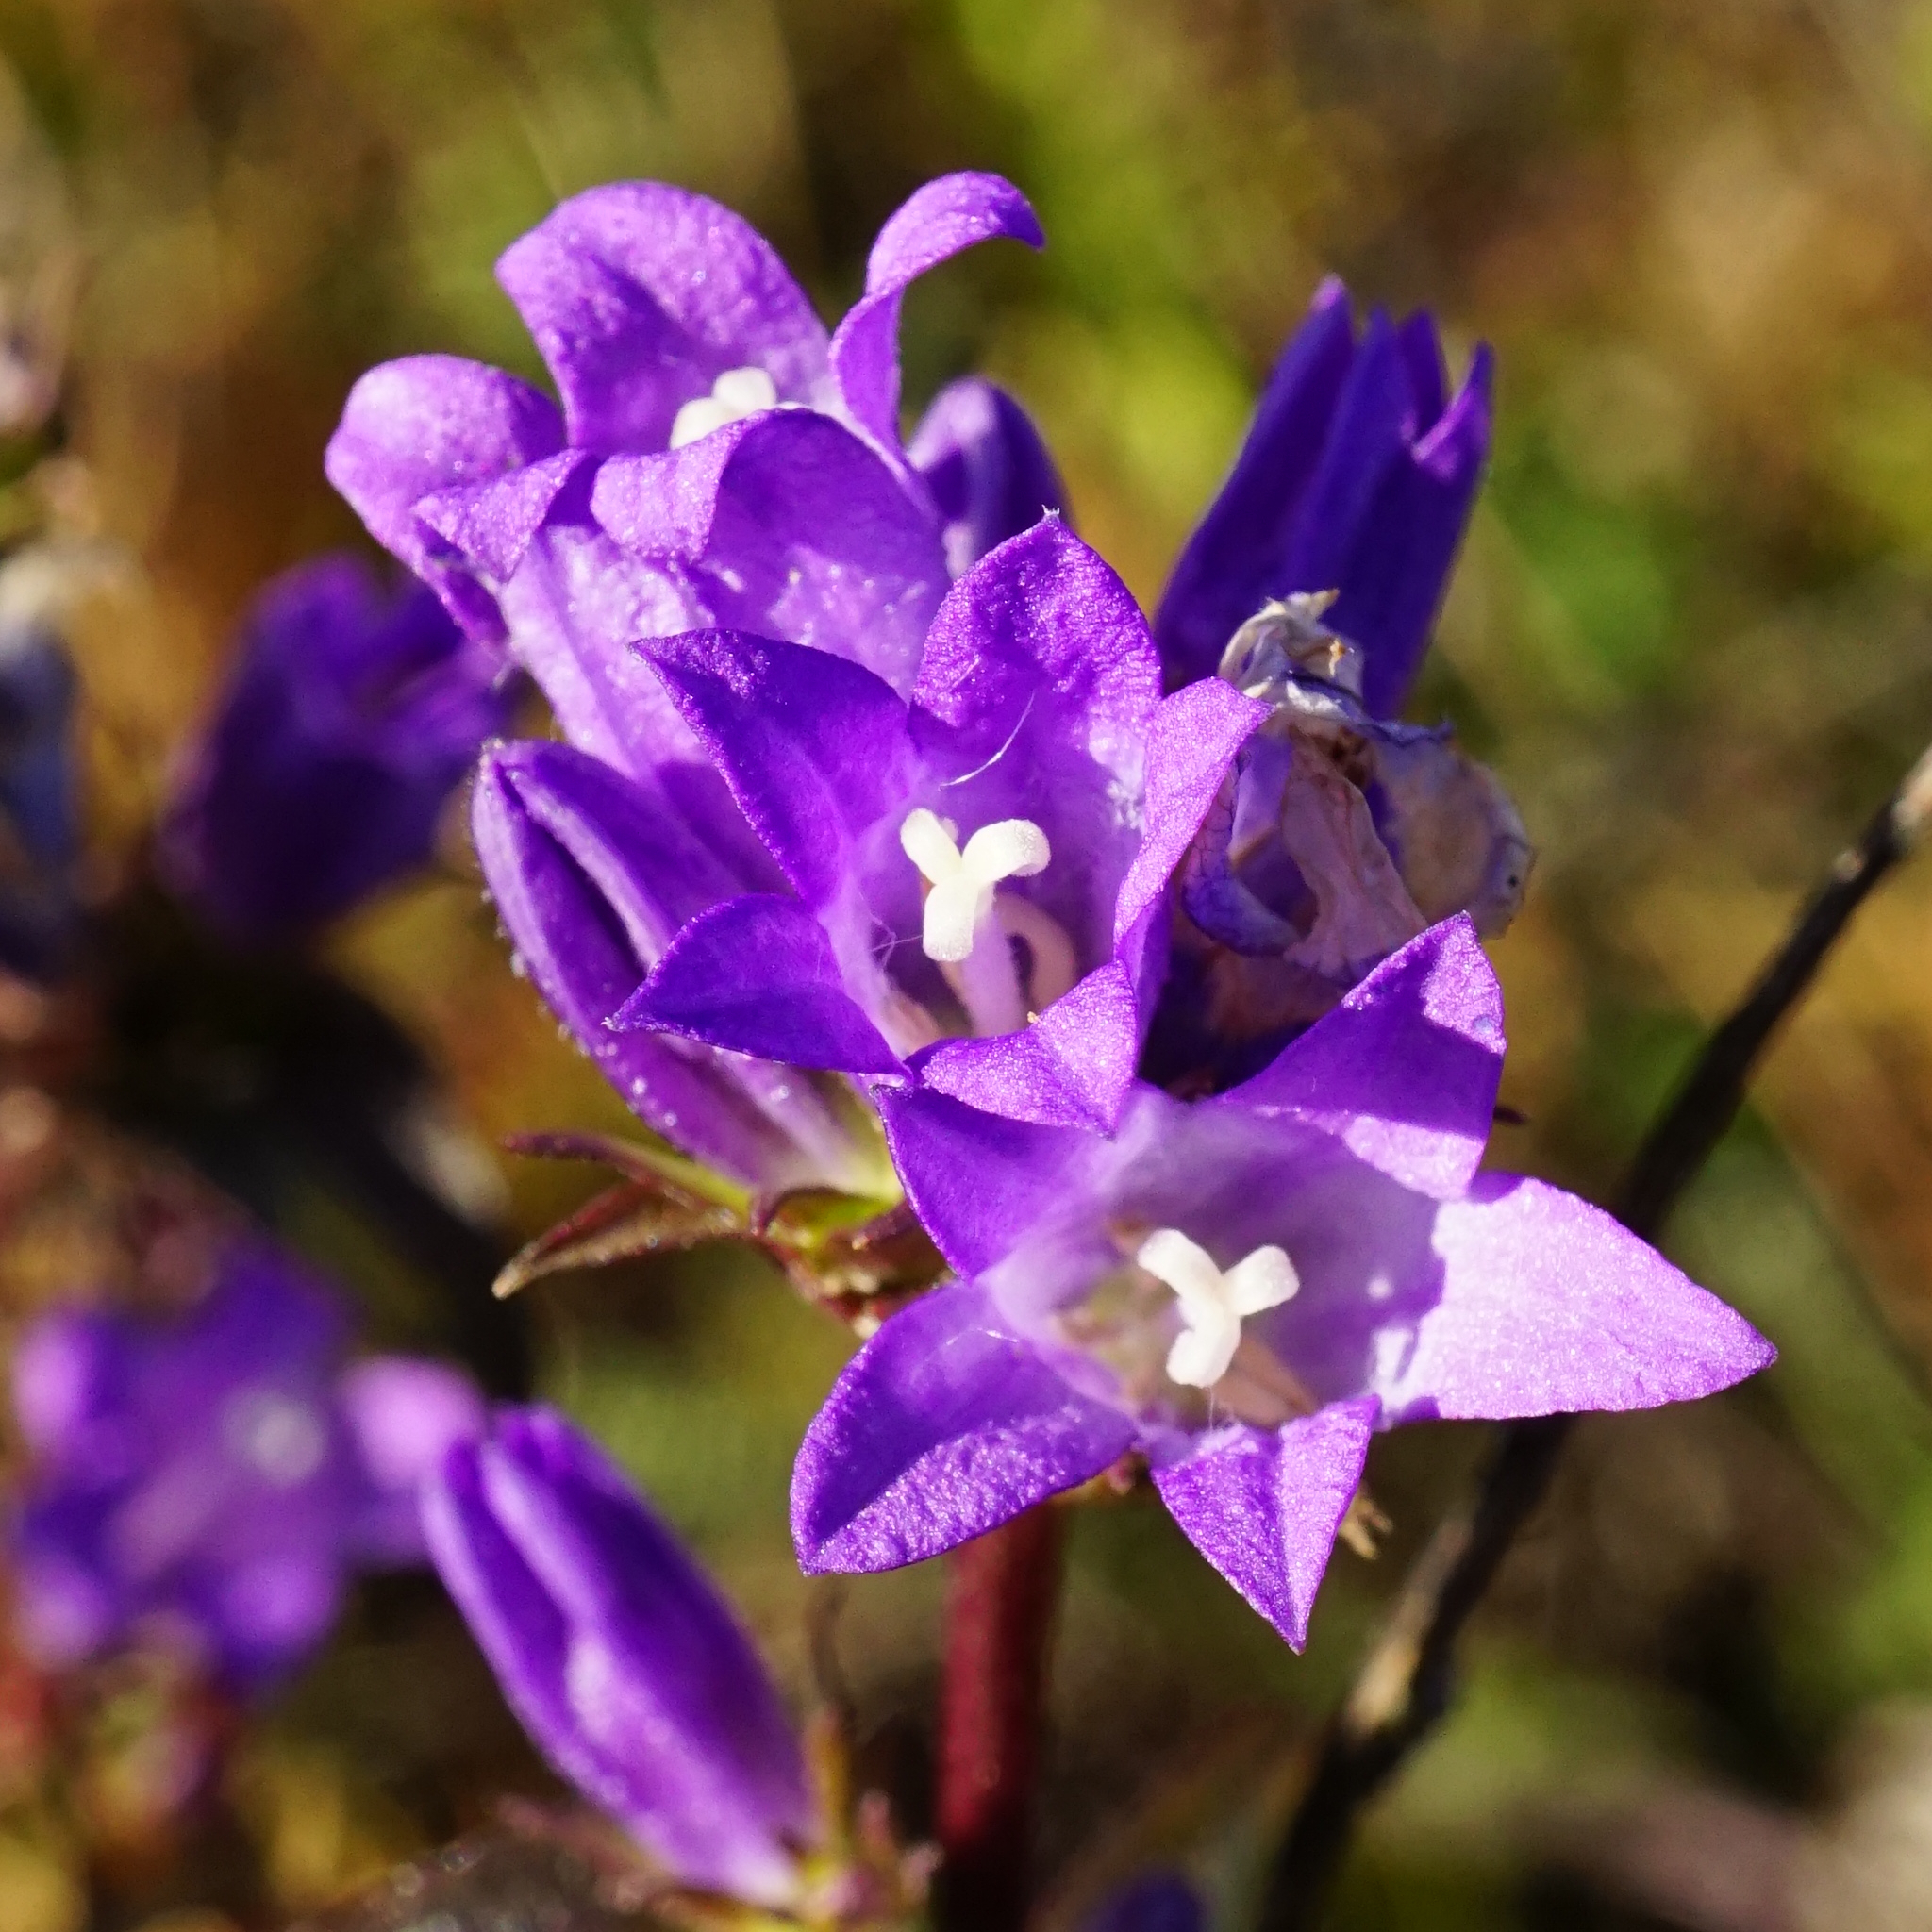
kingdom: Plantae
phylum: Tracheophyta
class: Magnoliopsida
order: Asterales
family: Campanulaceae
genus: Campanula
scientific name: Campanula glomerata
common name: Clustered bellflower
